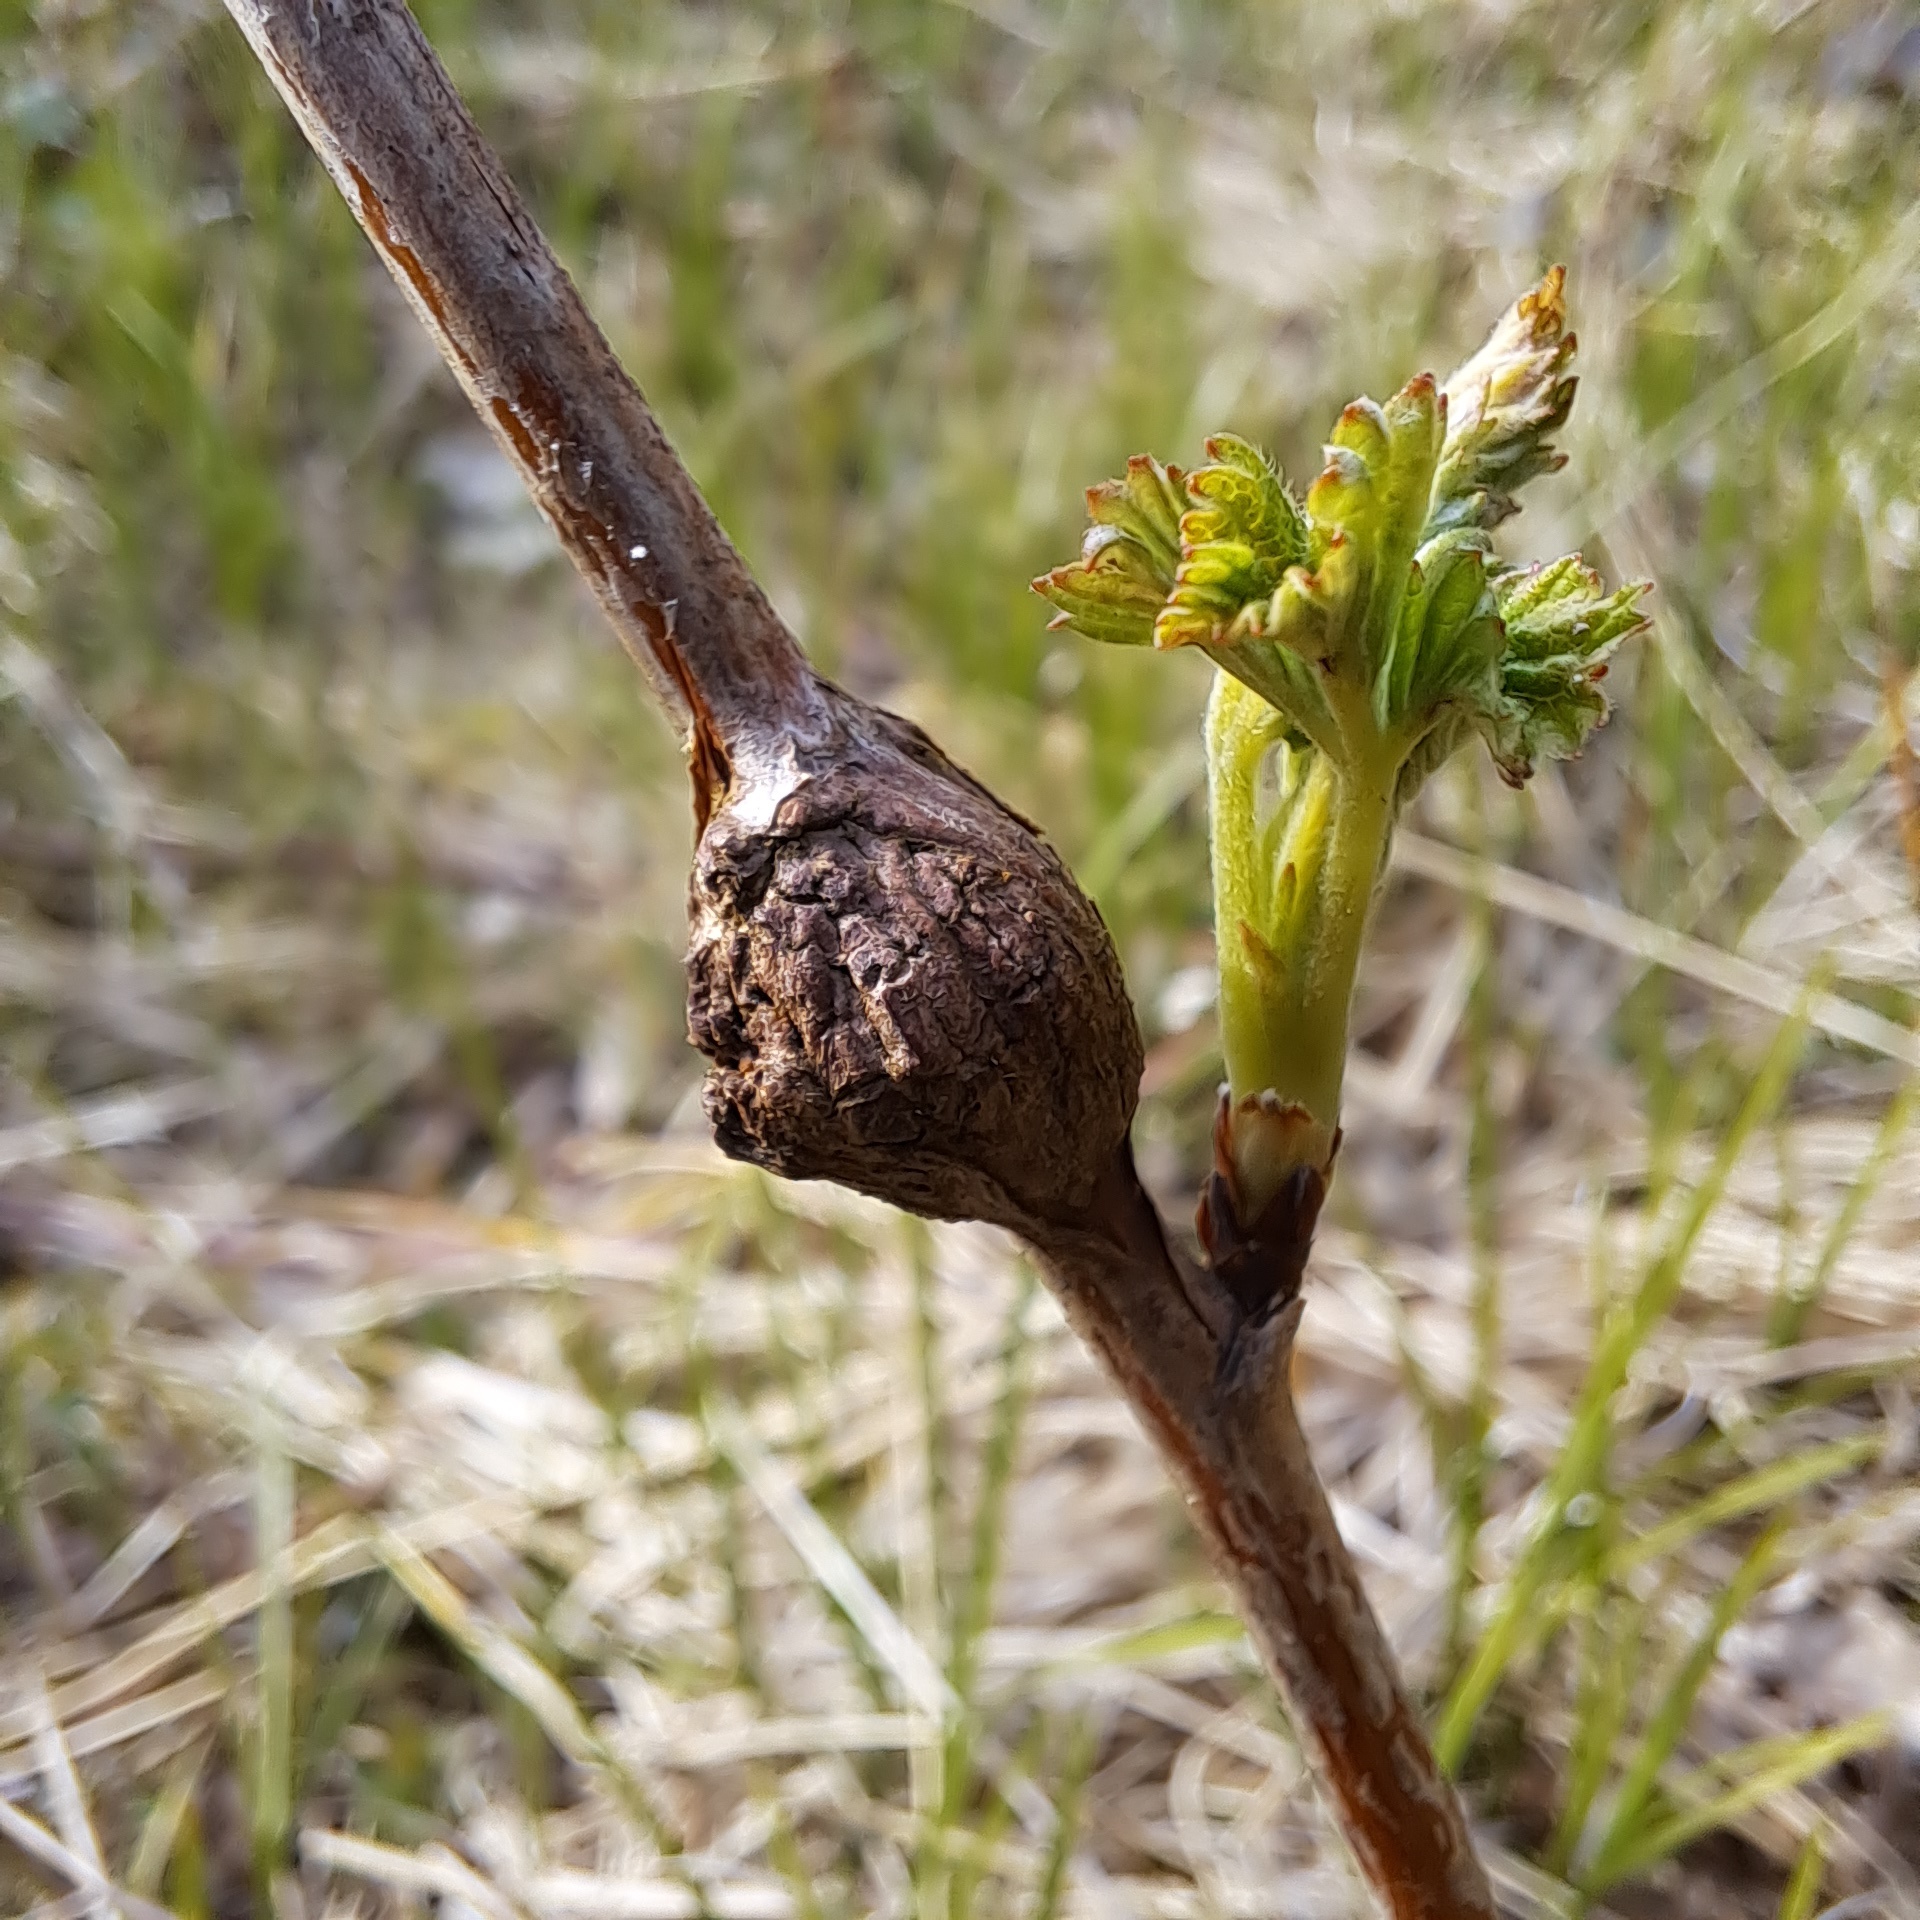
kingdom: Animalia
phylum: Arthropoda
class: Insecta
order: Diptera
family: Cecidomyiidae
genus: Lasioptera
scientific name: Lasioptera rubi
